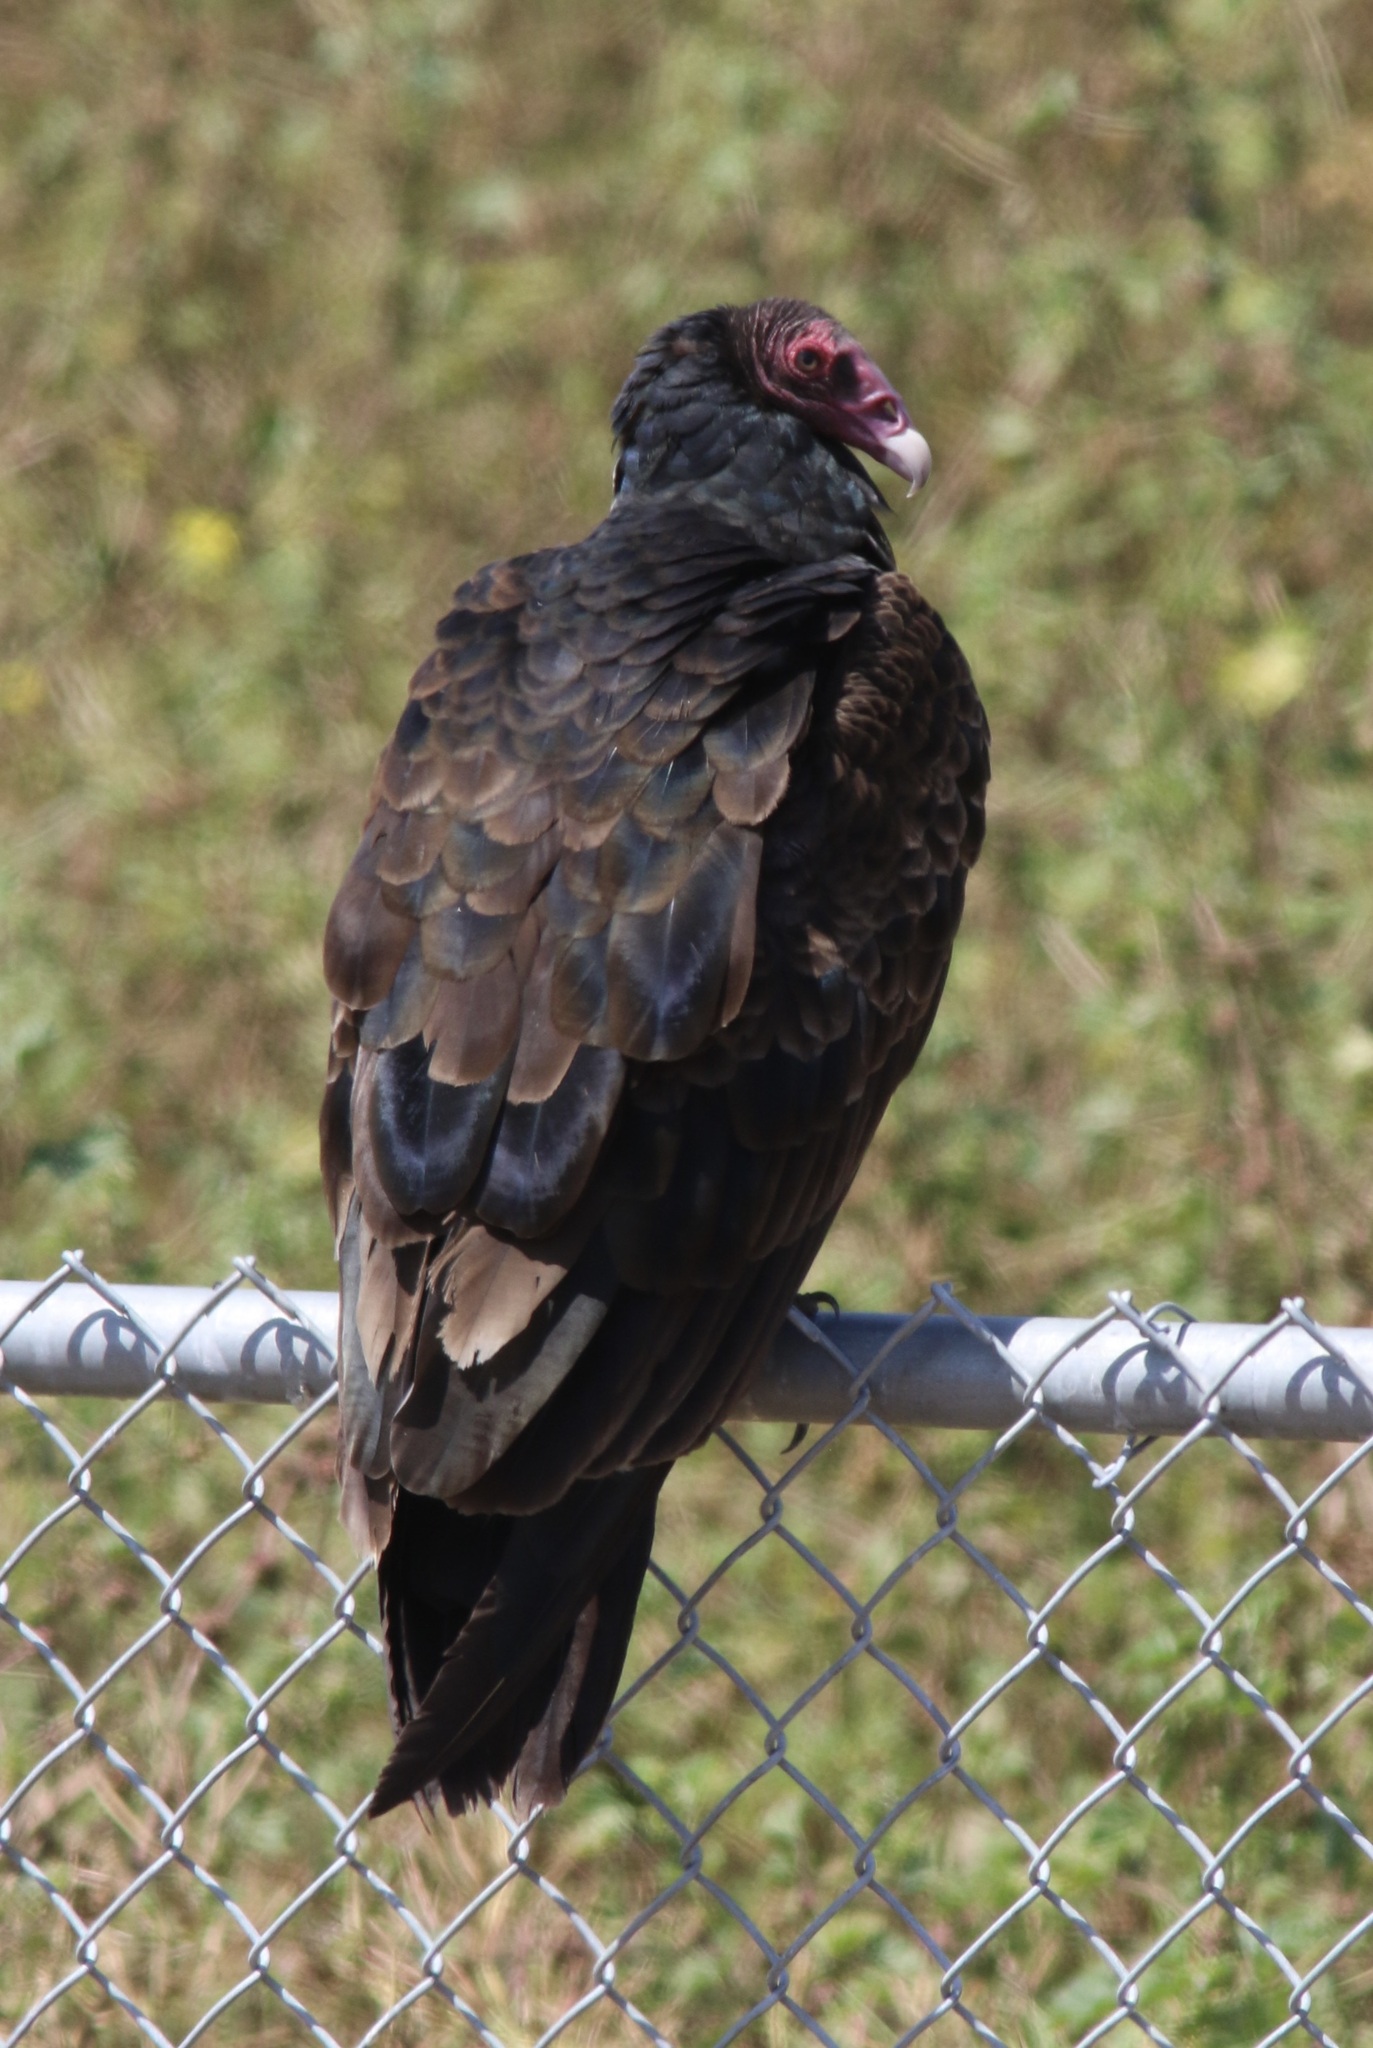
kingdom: Animalia
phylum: Chordata
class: Aves
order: Accipitriformes
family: Cathartidae
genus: Cathartes
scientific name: Cathartes aura
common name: Turkey vulture
